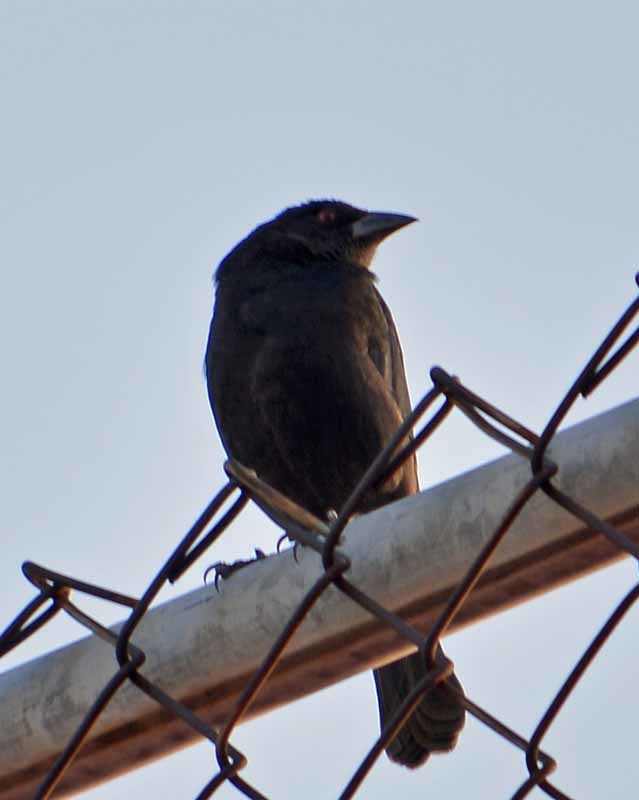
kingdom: Animalia
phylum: Chordata
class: Aves
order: Passeriformes
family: Icteridae
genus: Molothrus
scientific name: Molothrus aeneus
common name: Bronzed cowbird
